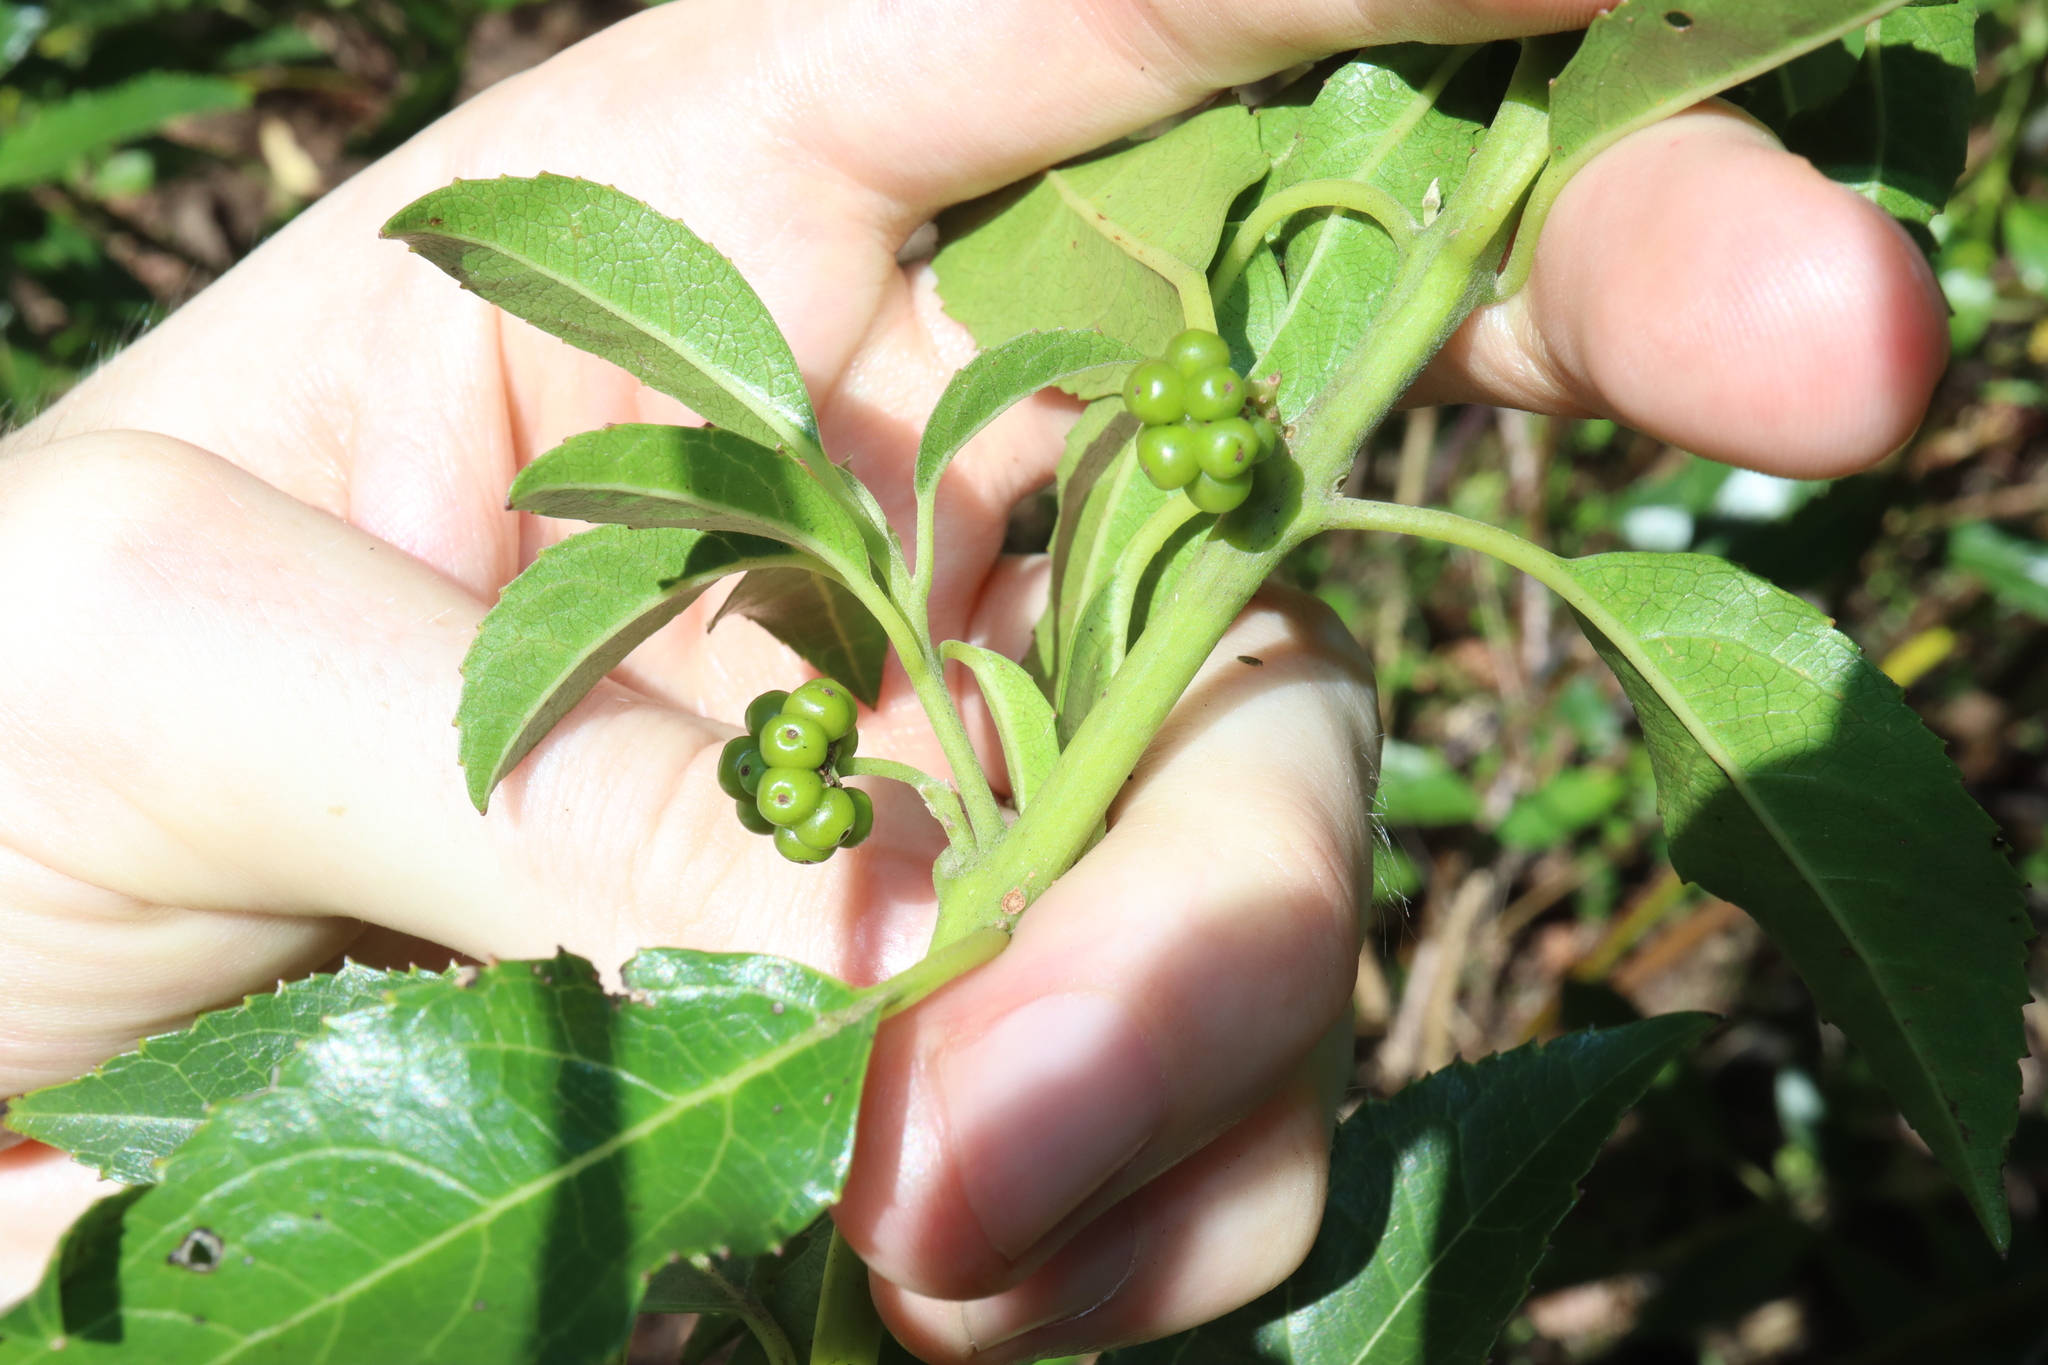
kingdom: Plantae
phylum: Tracheophyta
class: Magnoliopsida
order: Laurales
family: Monimiaceae
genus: Hedycarya
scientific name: Hedycarya angustifolia
